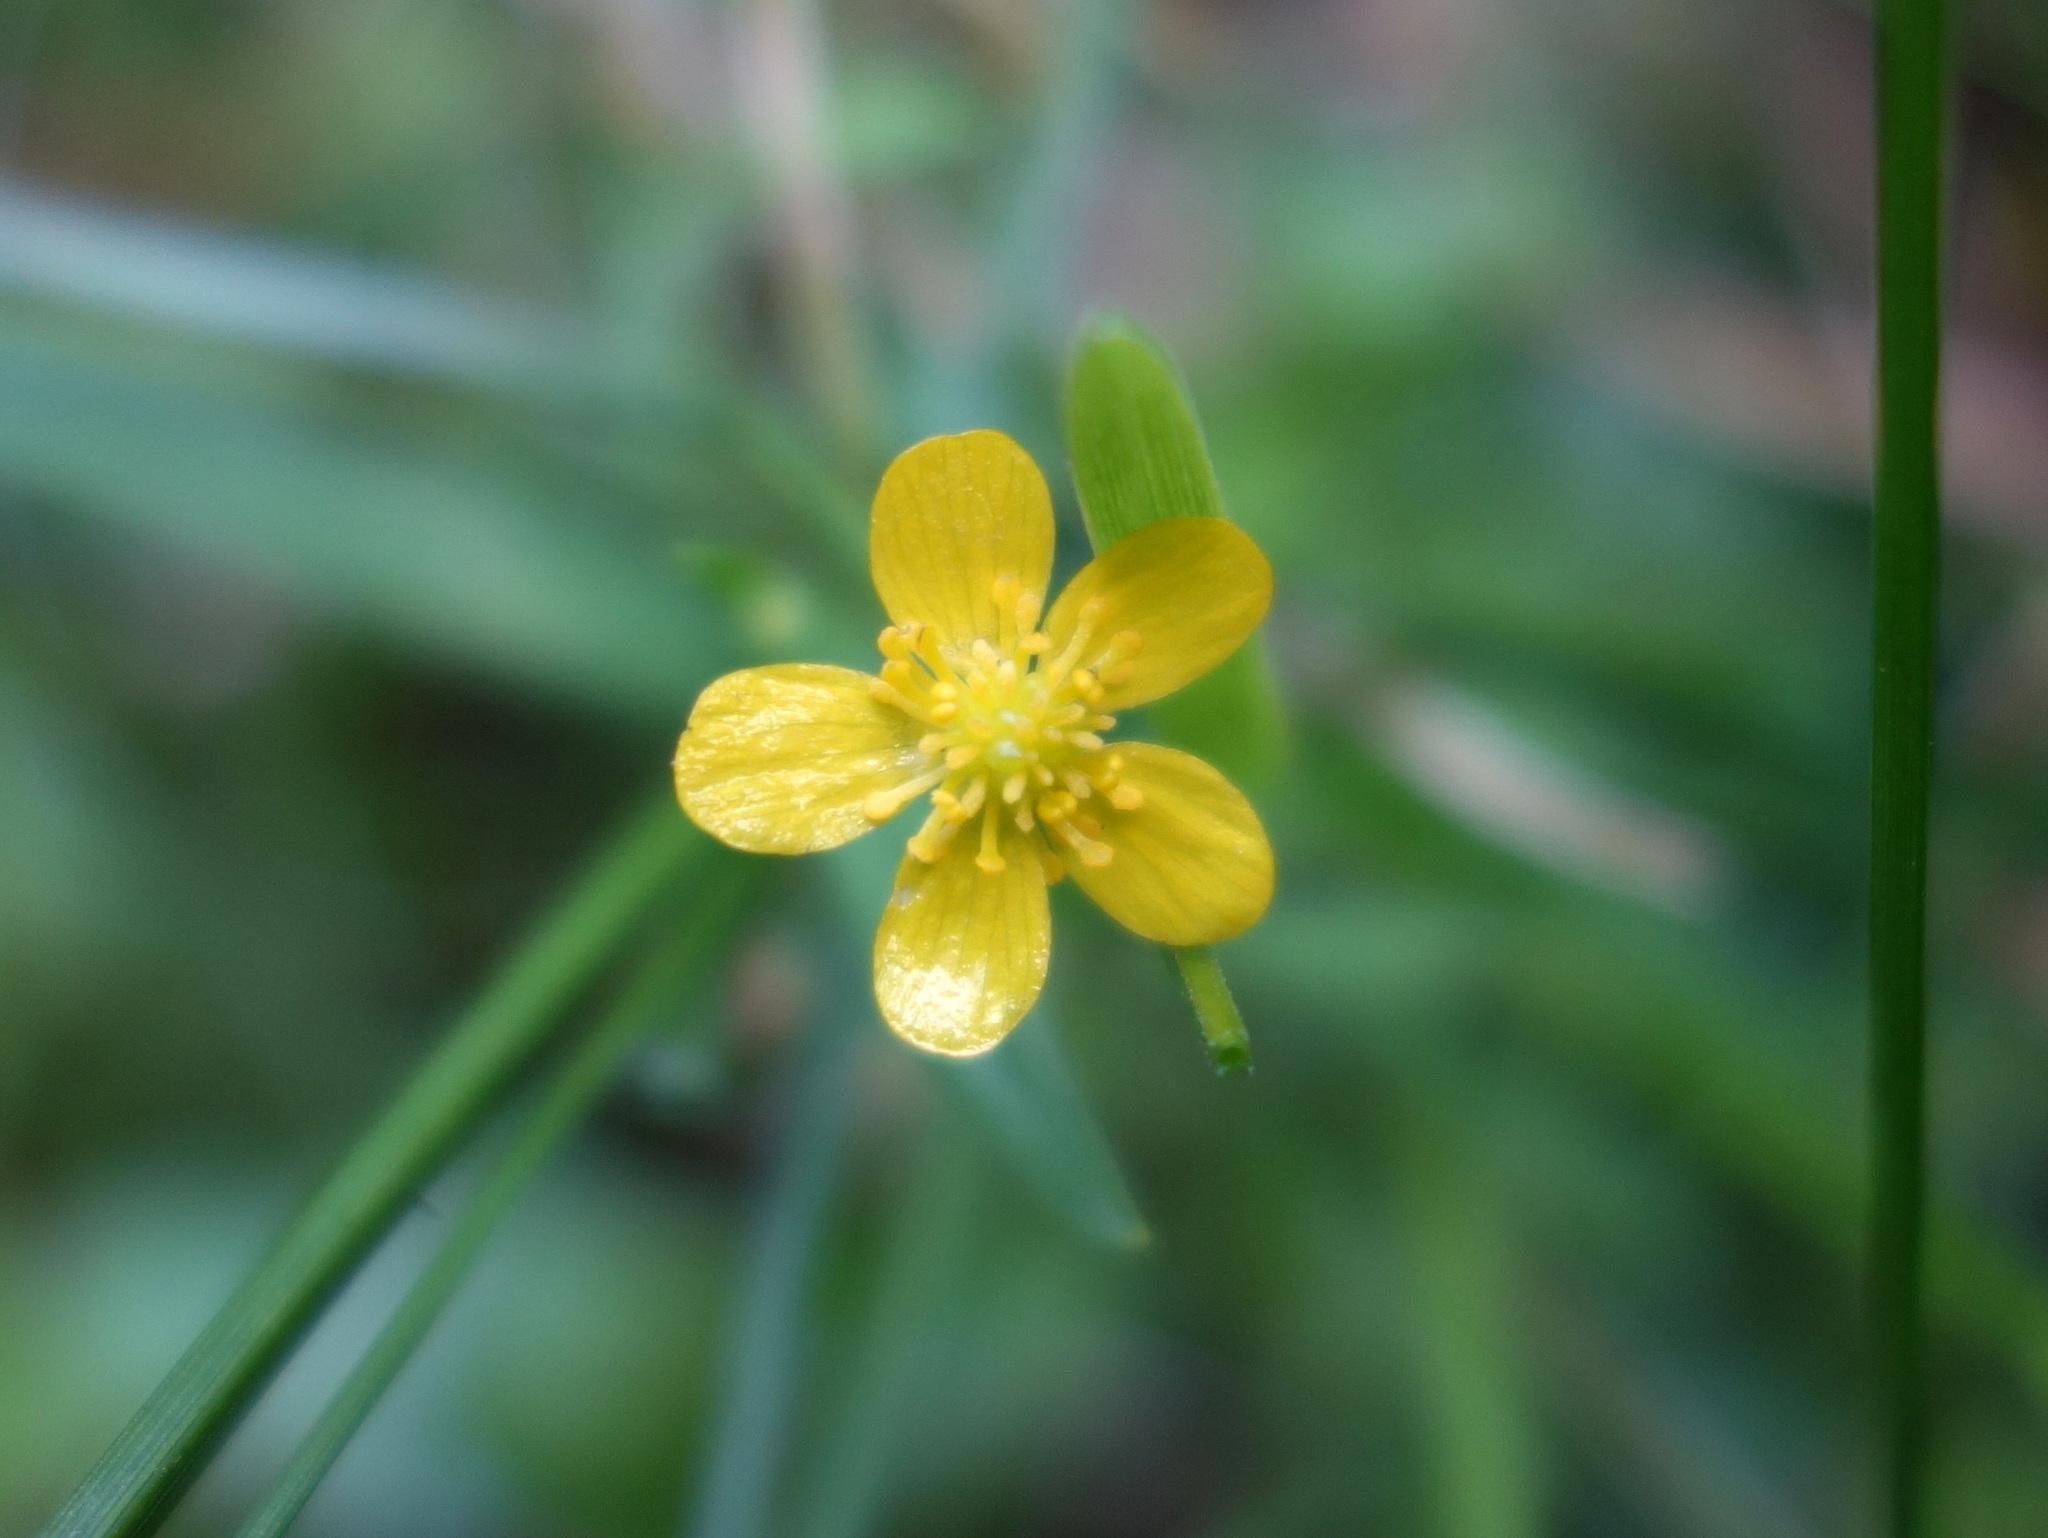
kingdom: Plantae
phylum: Tracheophyta
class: Magnoliopsida
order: Ranunculales
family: Ranunculaceae
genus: Ranunculus
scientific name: Ranunculus flammula
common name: Lesser spearwort
